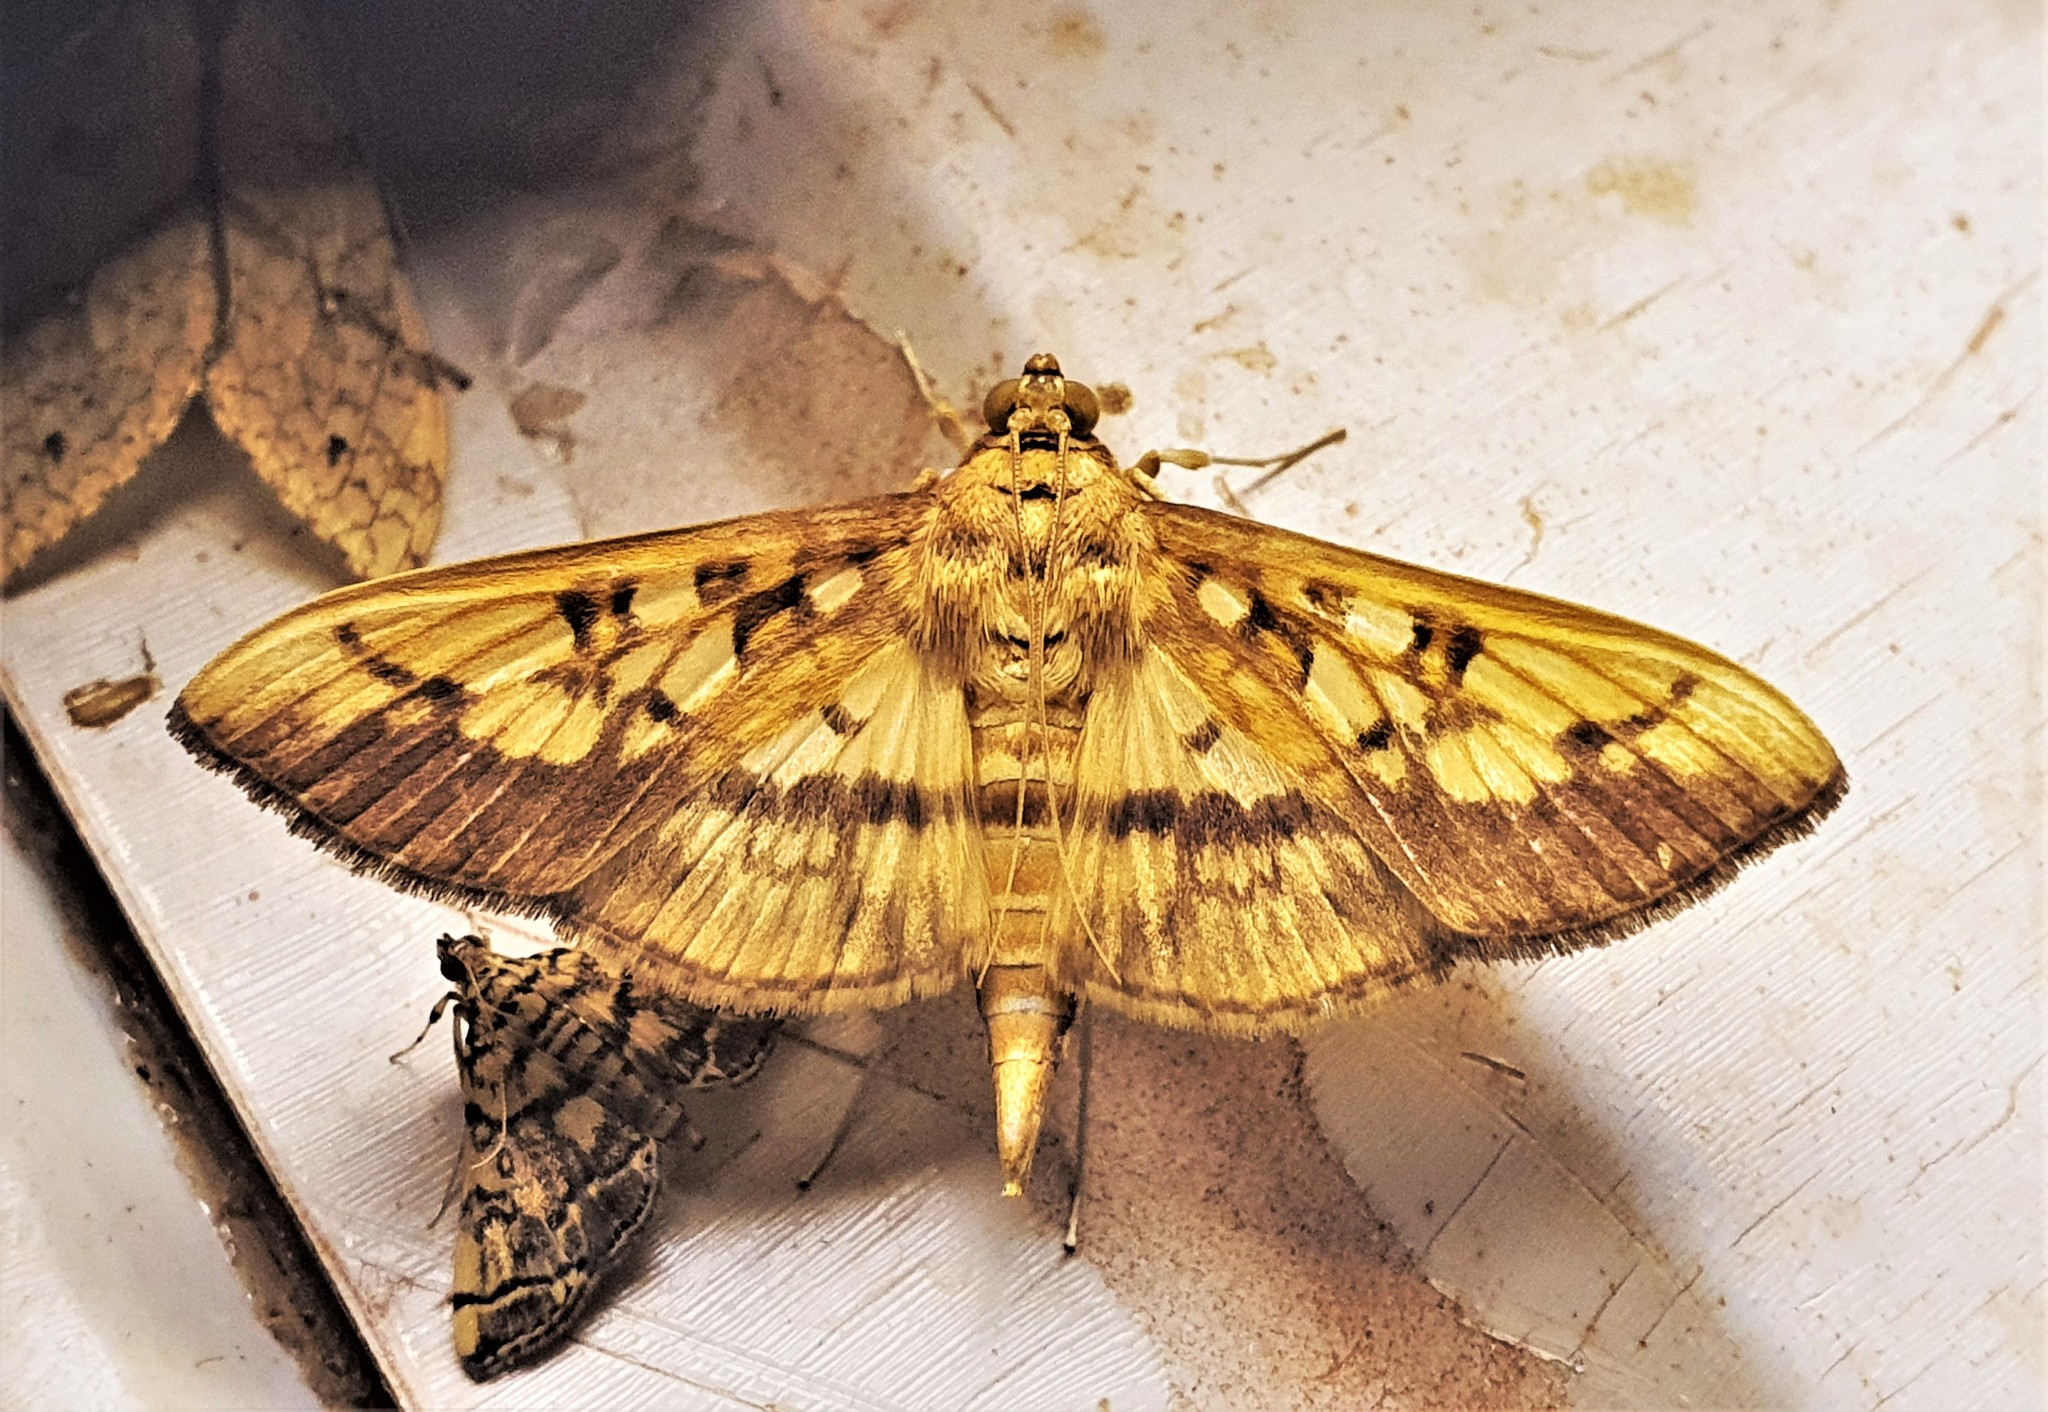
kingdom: Animalia
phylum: Arthropoda
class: Insecta
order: Lepidoptera
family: Crambidae
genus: Micromartinia
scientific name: Micromartinia mnemusalis
